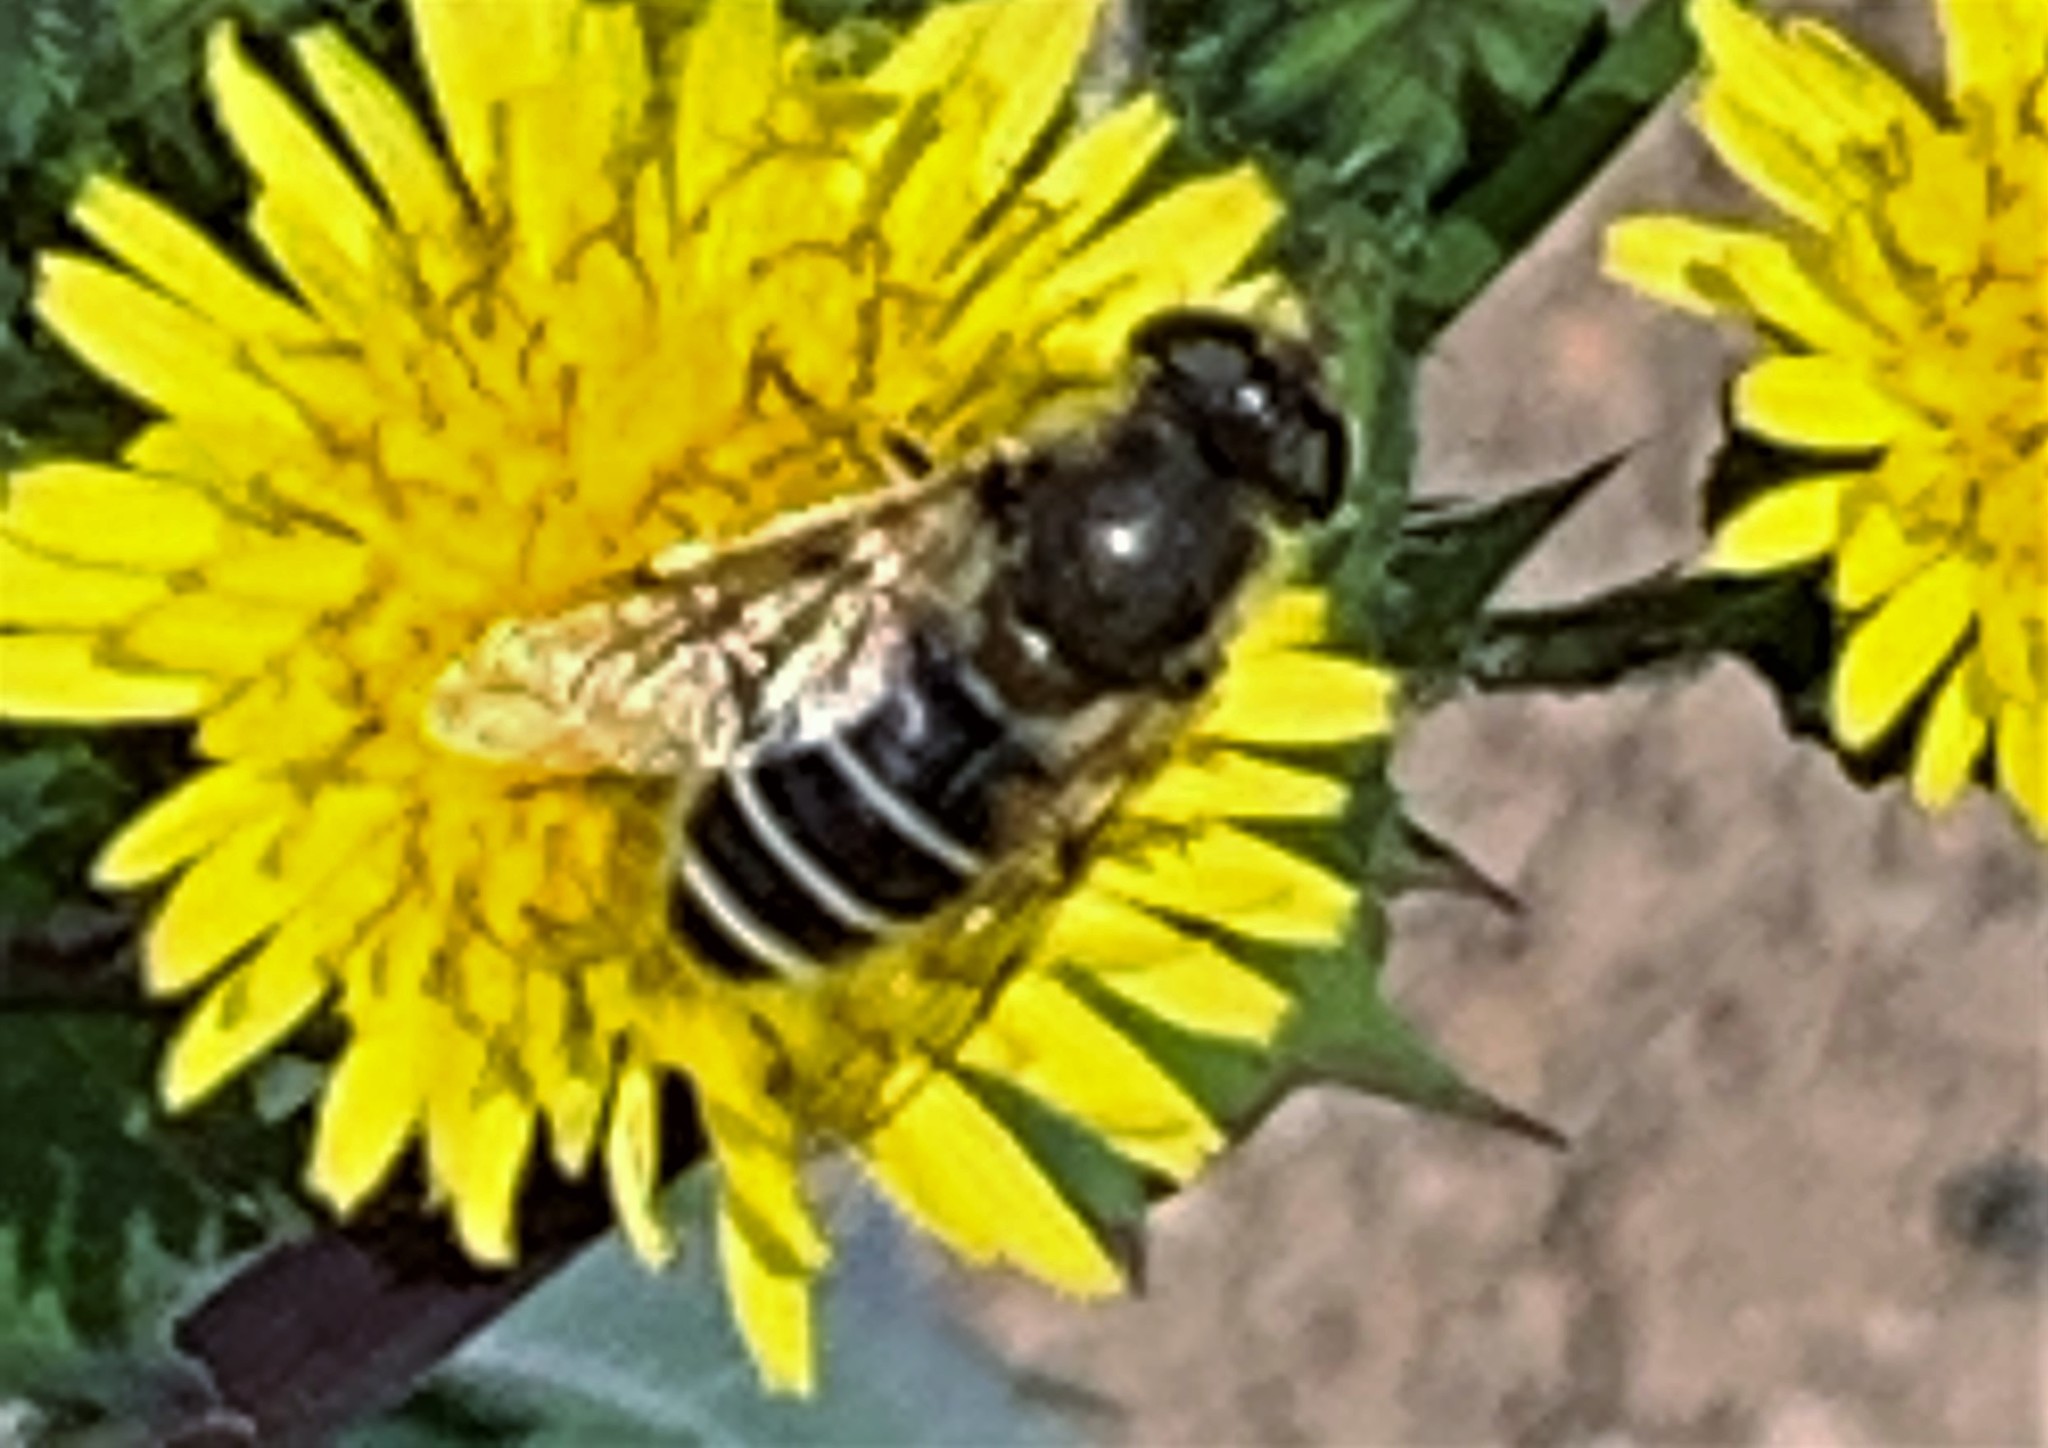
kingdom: Animalia
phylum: Arthropoda
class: Insecta
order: Diptera
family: Syrphidae
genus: Eristalis
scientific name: Eristalis
